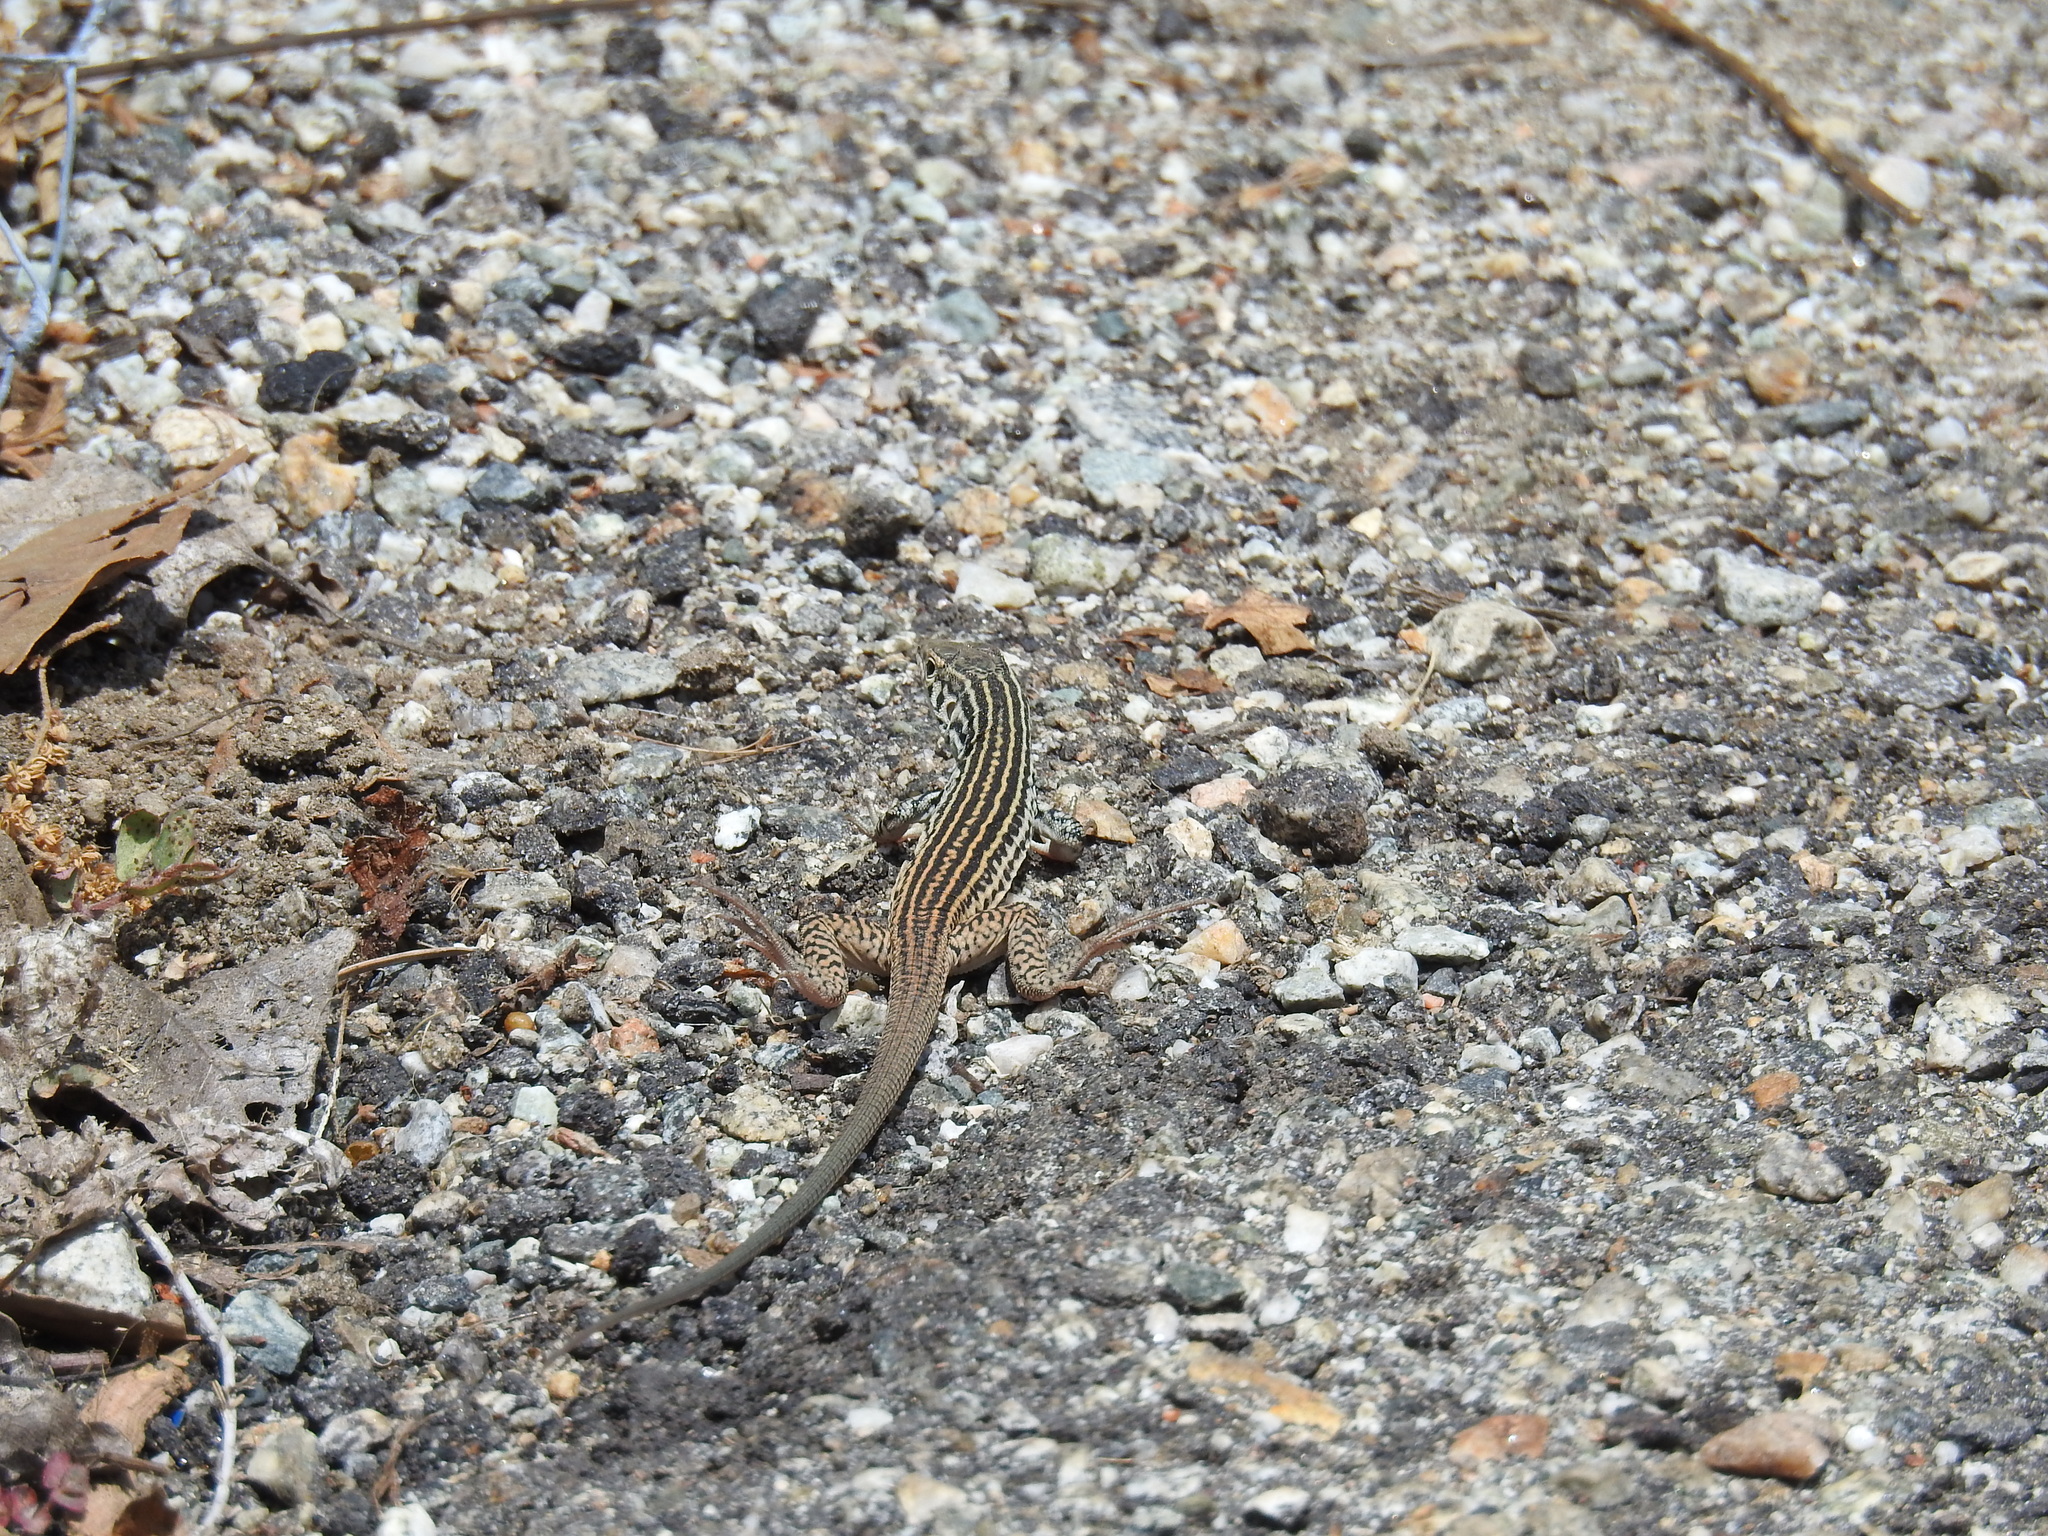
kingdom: Animalia
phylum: Chordata
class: Squamata
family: Teiidae
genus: Aspidoscelis
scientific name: Aspidoscelis tigris
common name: Tiger whiptail
